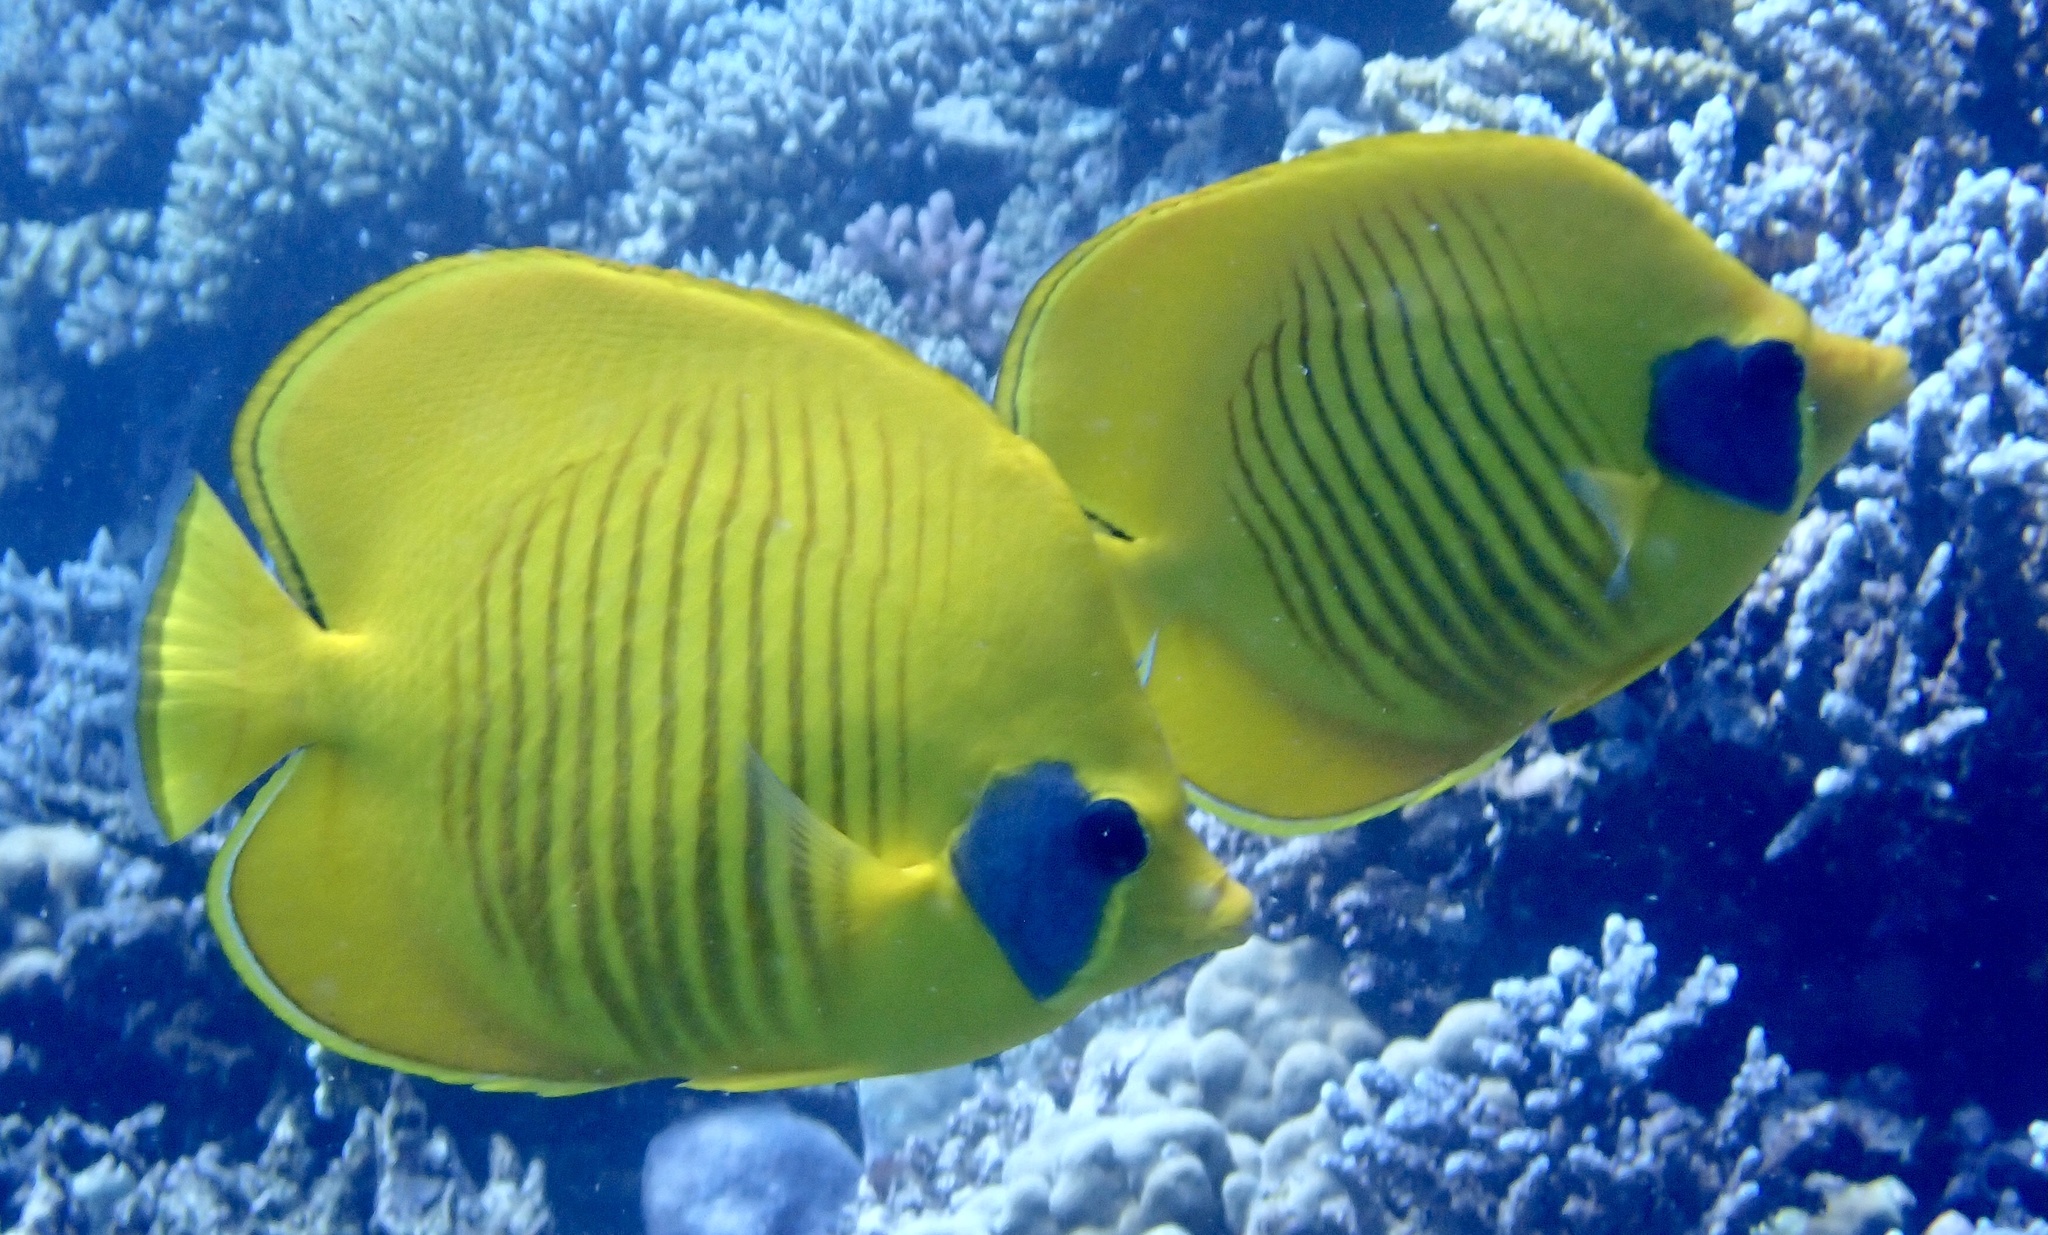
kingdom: Animalia
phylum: Chordata
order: Perciformes
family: Chaetodontidae
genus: Chaetodon
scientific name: Chaetodon semilarvatus
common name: Golden butterflyfish
